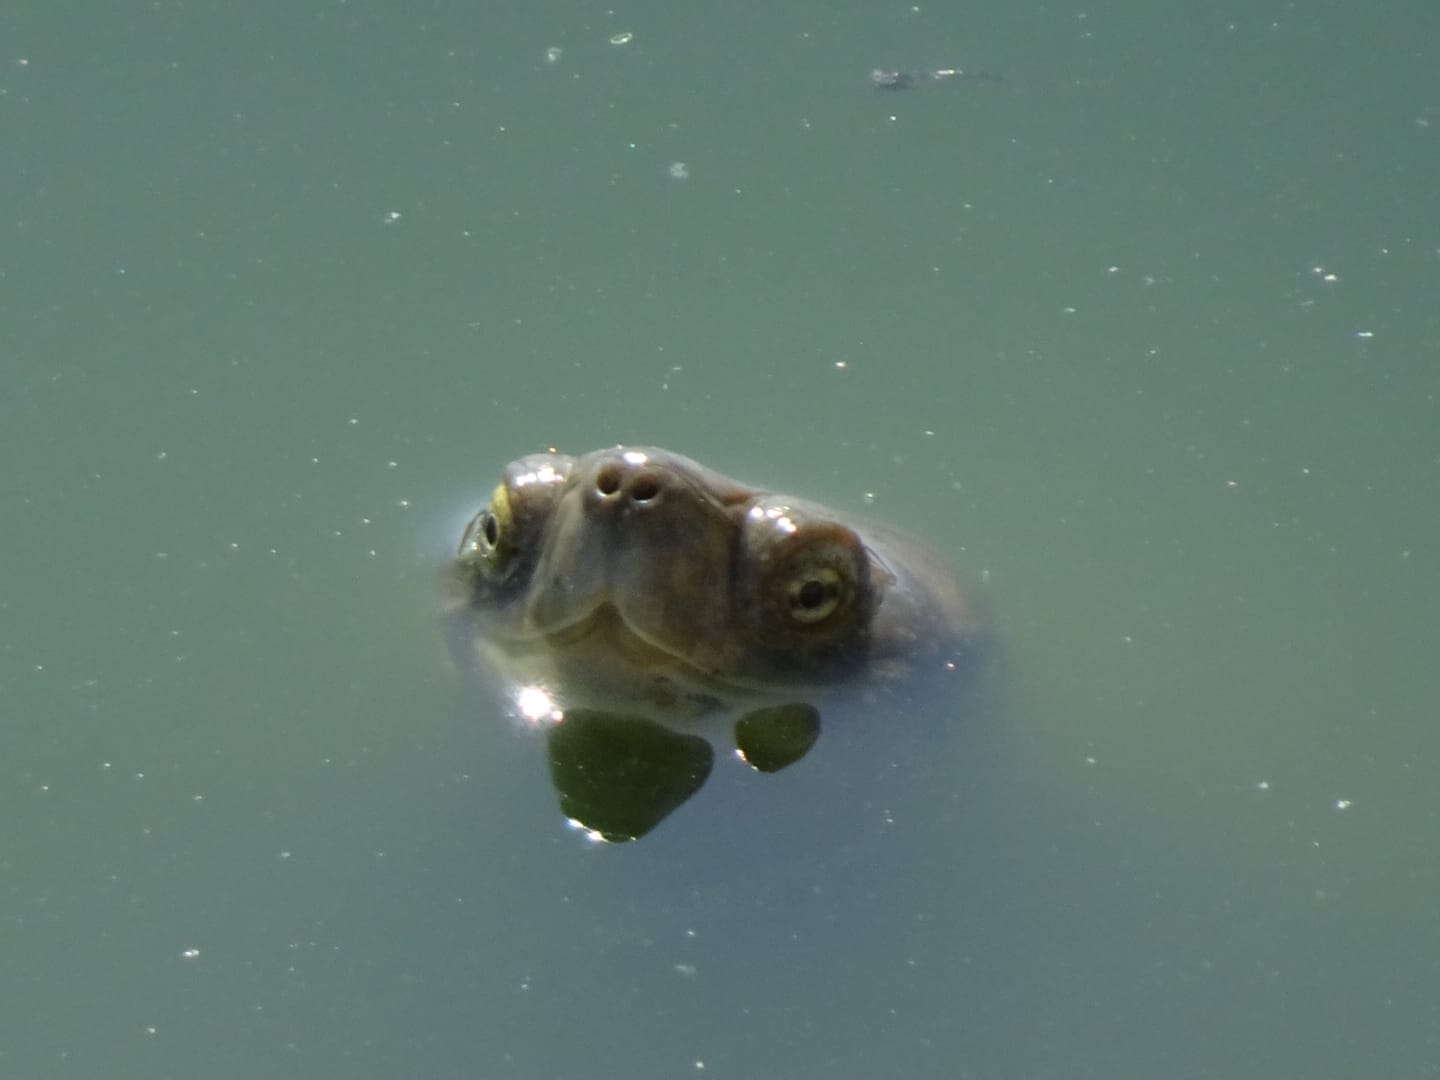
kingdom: Animalia
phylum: Chordata
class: Testudines
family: Geoemydidae
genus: Mauremys
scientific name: Mauremys leprosa
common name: Mediterranean pond turtle
